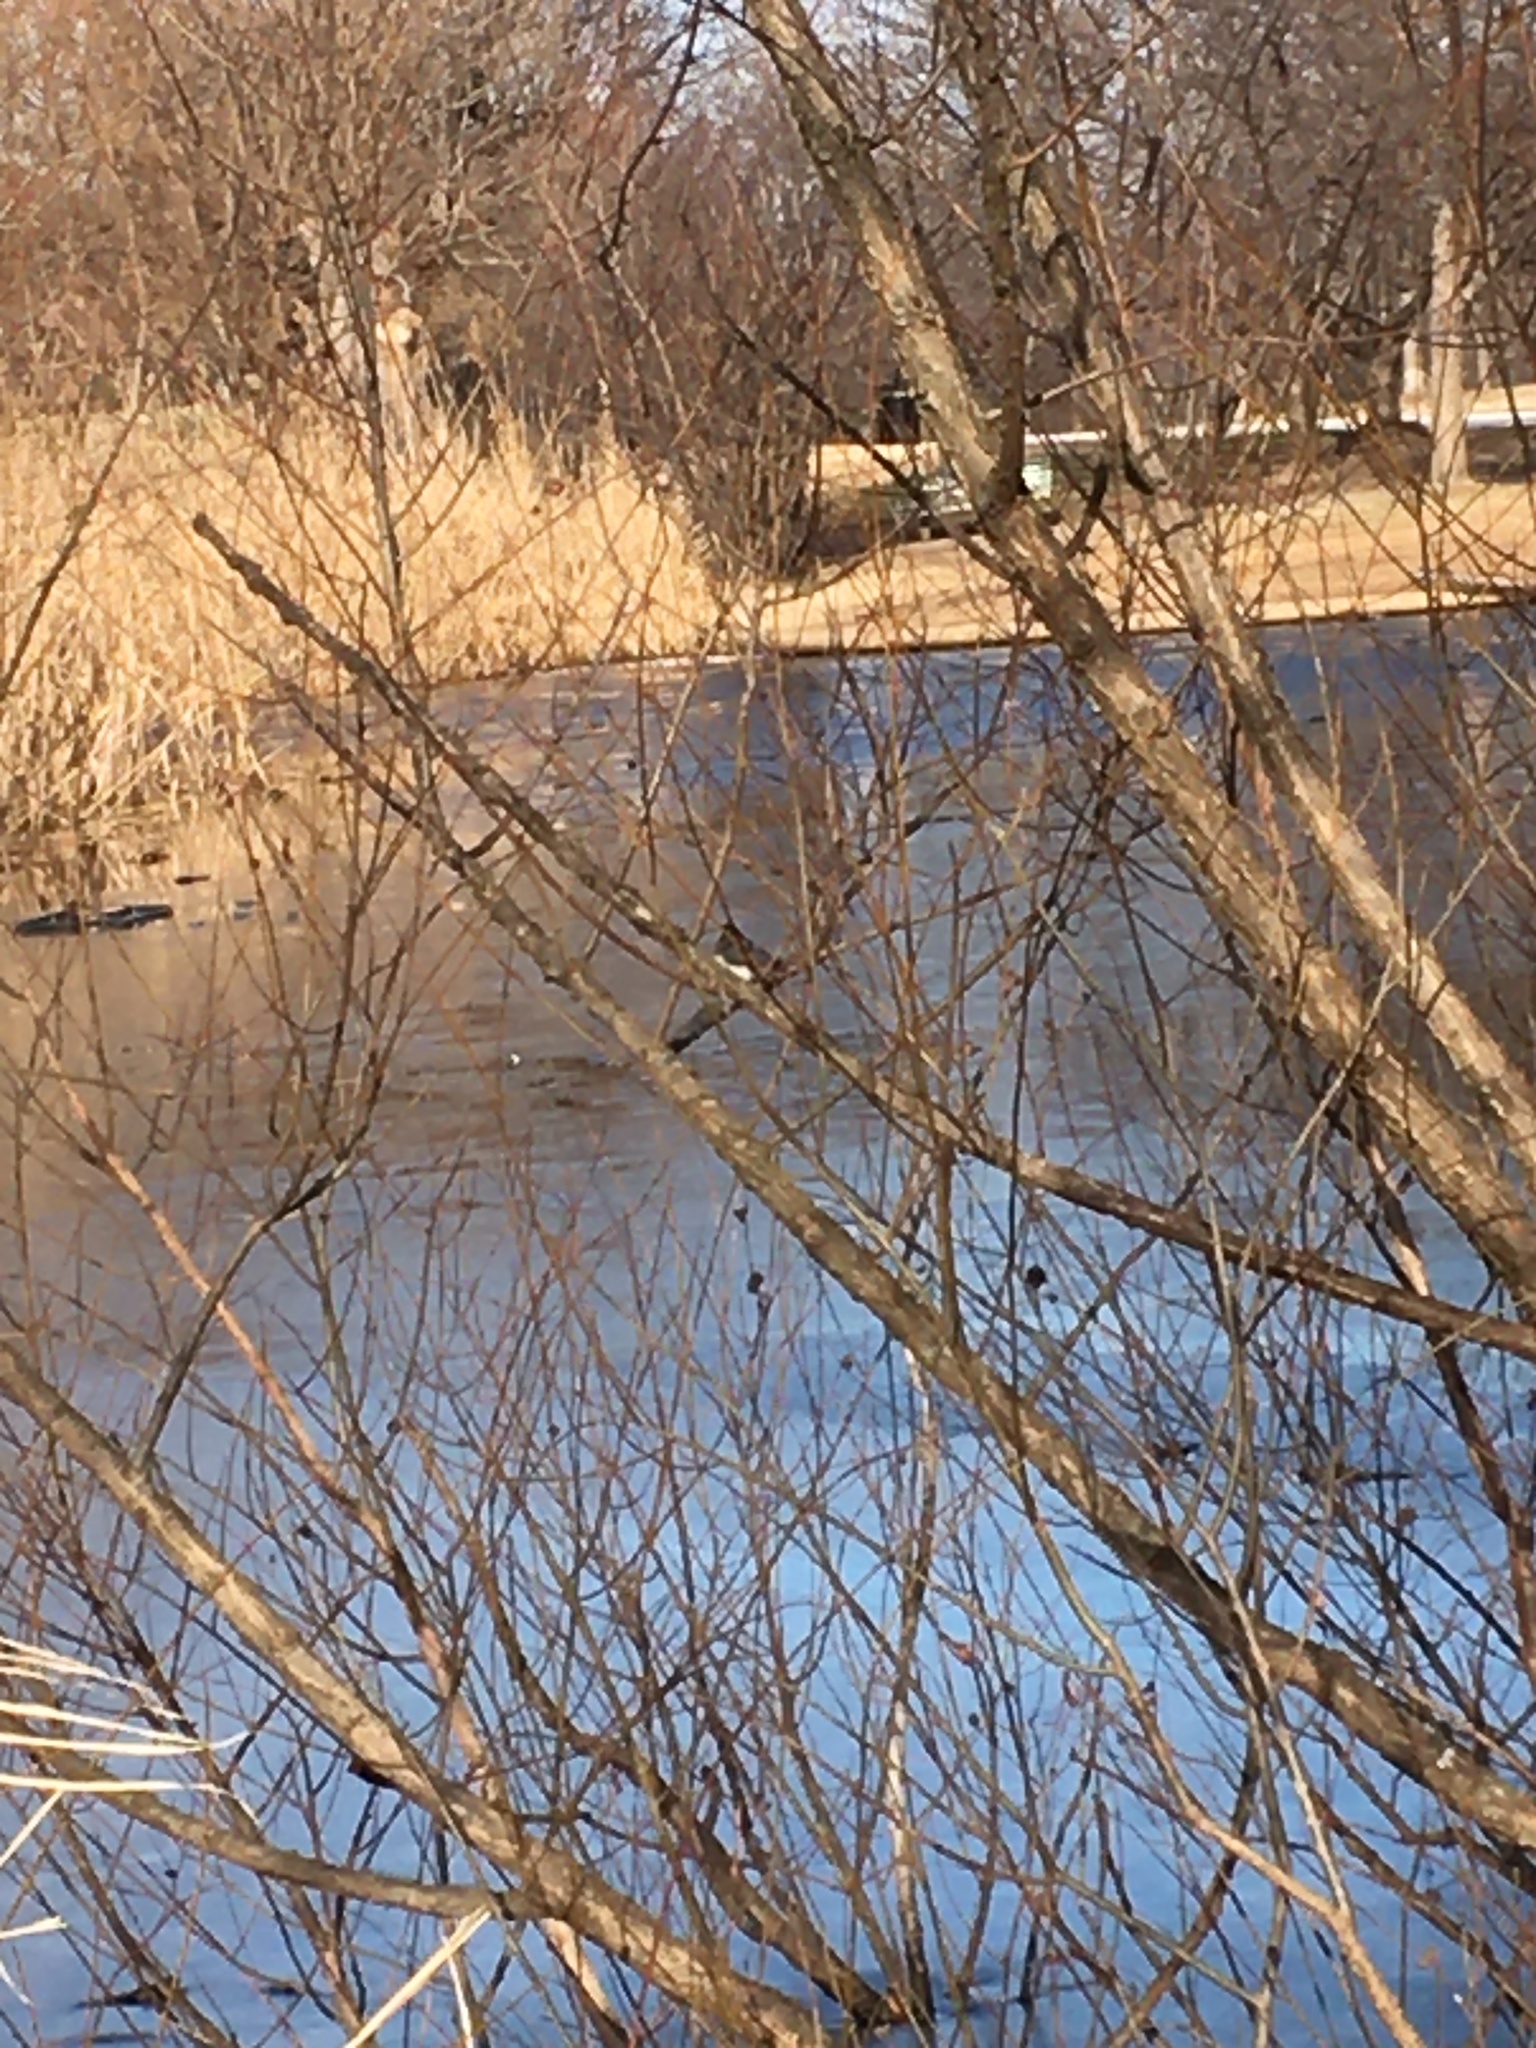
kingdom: Animalia
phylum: Chordata
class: Aves
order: Passeriformes
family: Passerellidae
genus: Junco
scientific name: Junco hyemalis
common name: Dark-eyed junco
